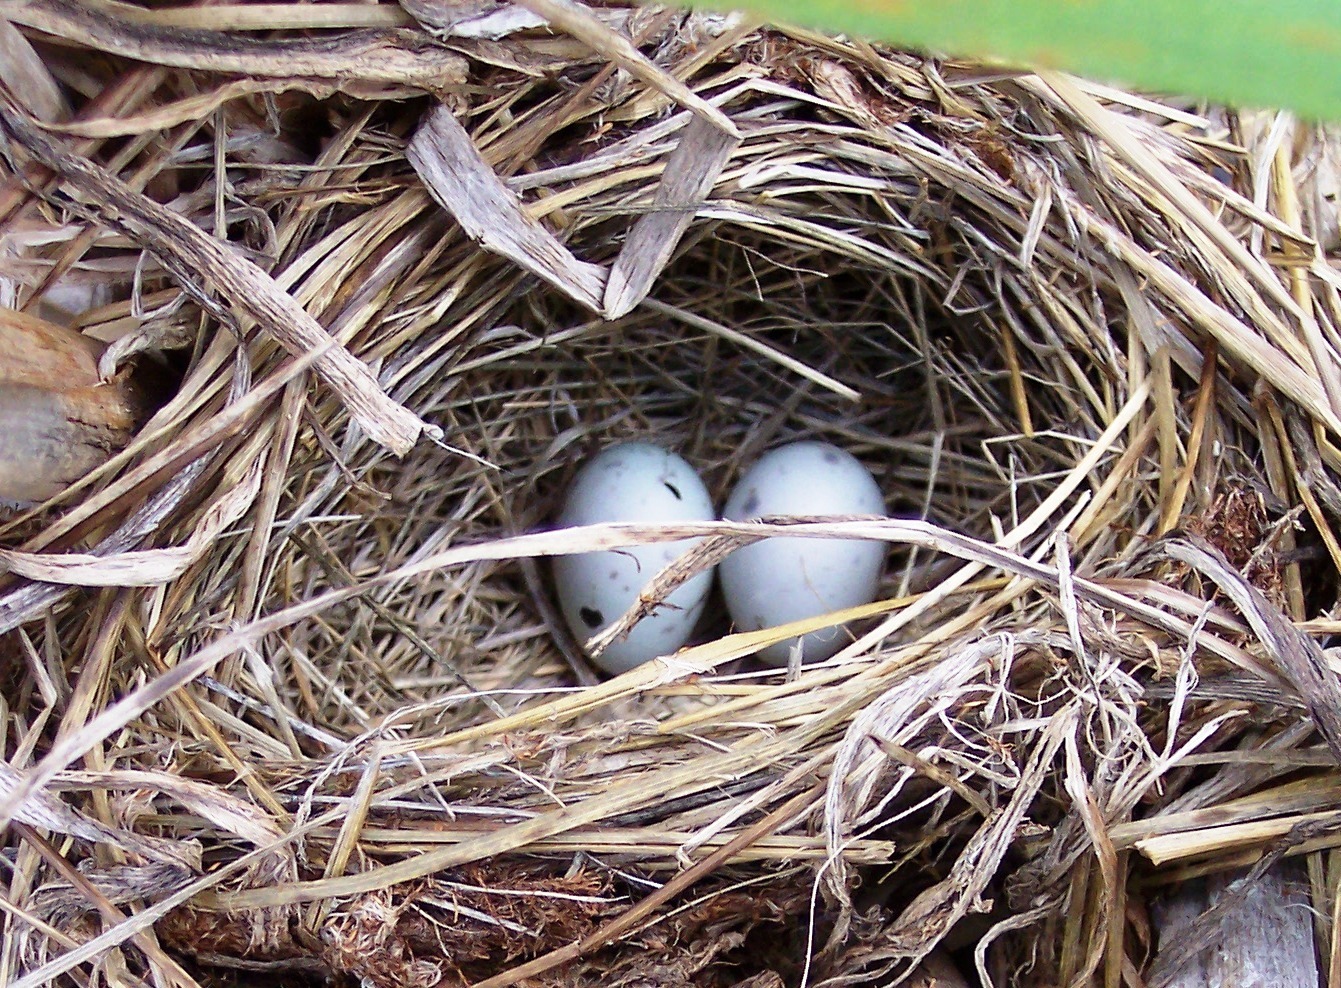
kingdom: Animalia
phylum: Chordata
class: Aves
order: Passeriformes
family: Icteridae
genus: Agelaius
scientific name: Agelaius phoeniceus
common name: Red-winged blackbird
